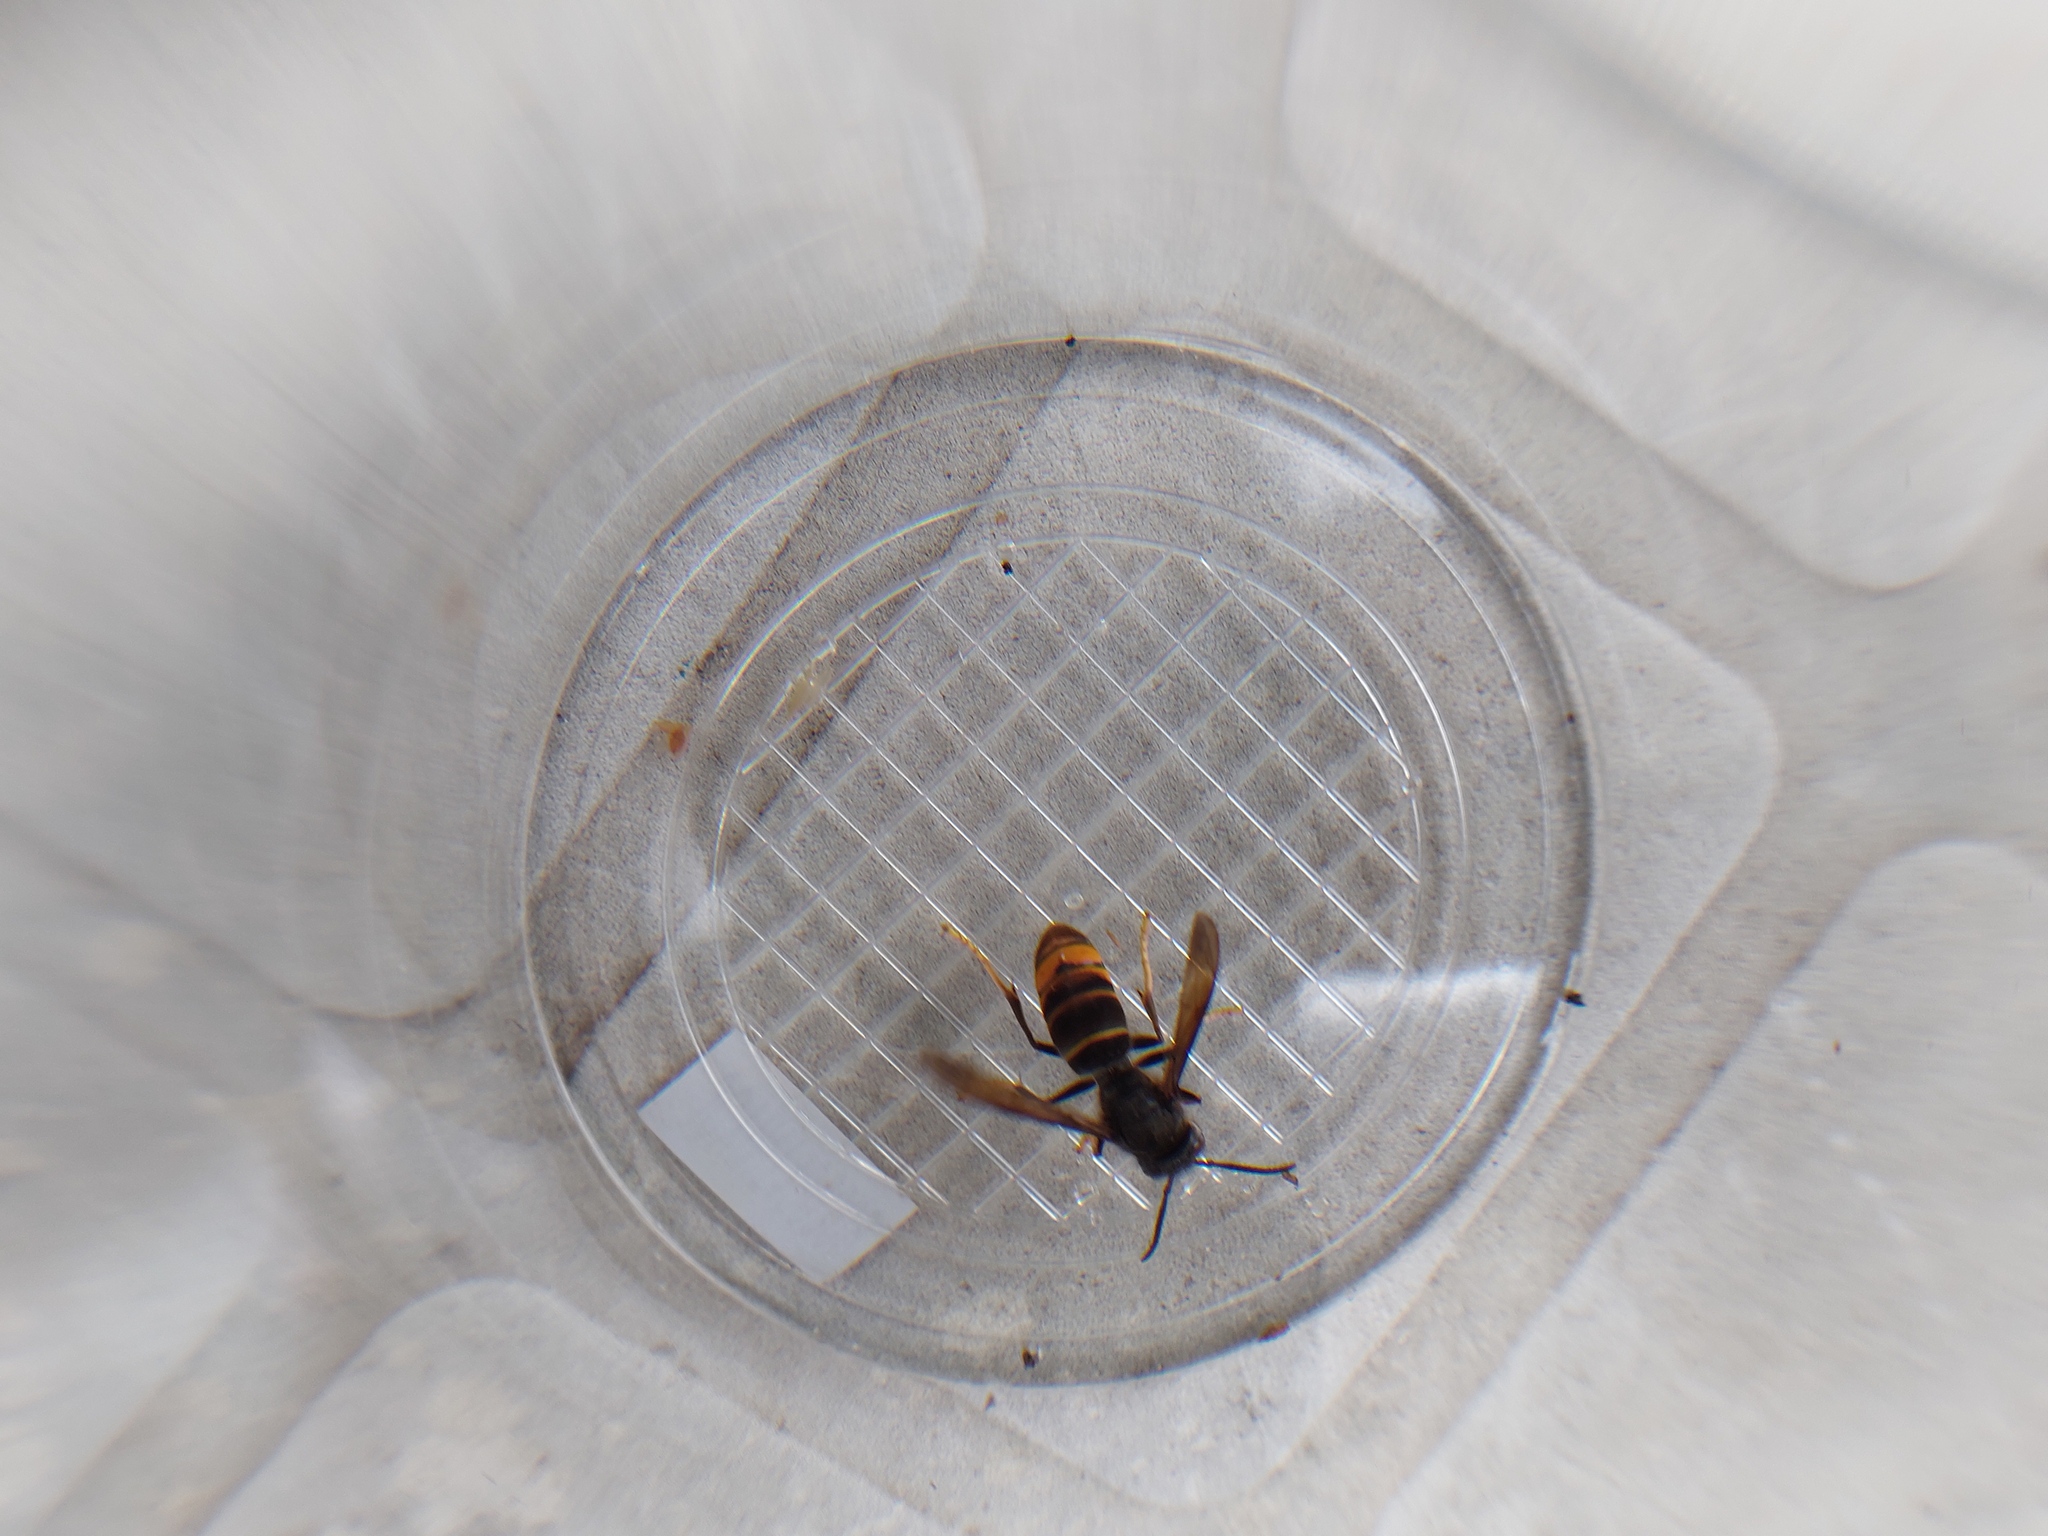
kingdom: Animalia
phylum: Arthropoda
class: Insecta
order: Hymenoptera
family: Vespidae
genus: Vespa
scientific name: Vespa velutina
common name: Asian hornet
